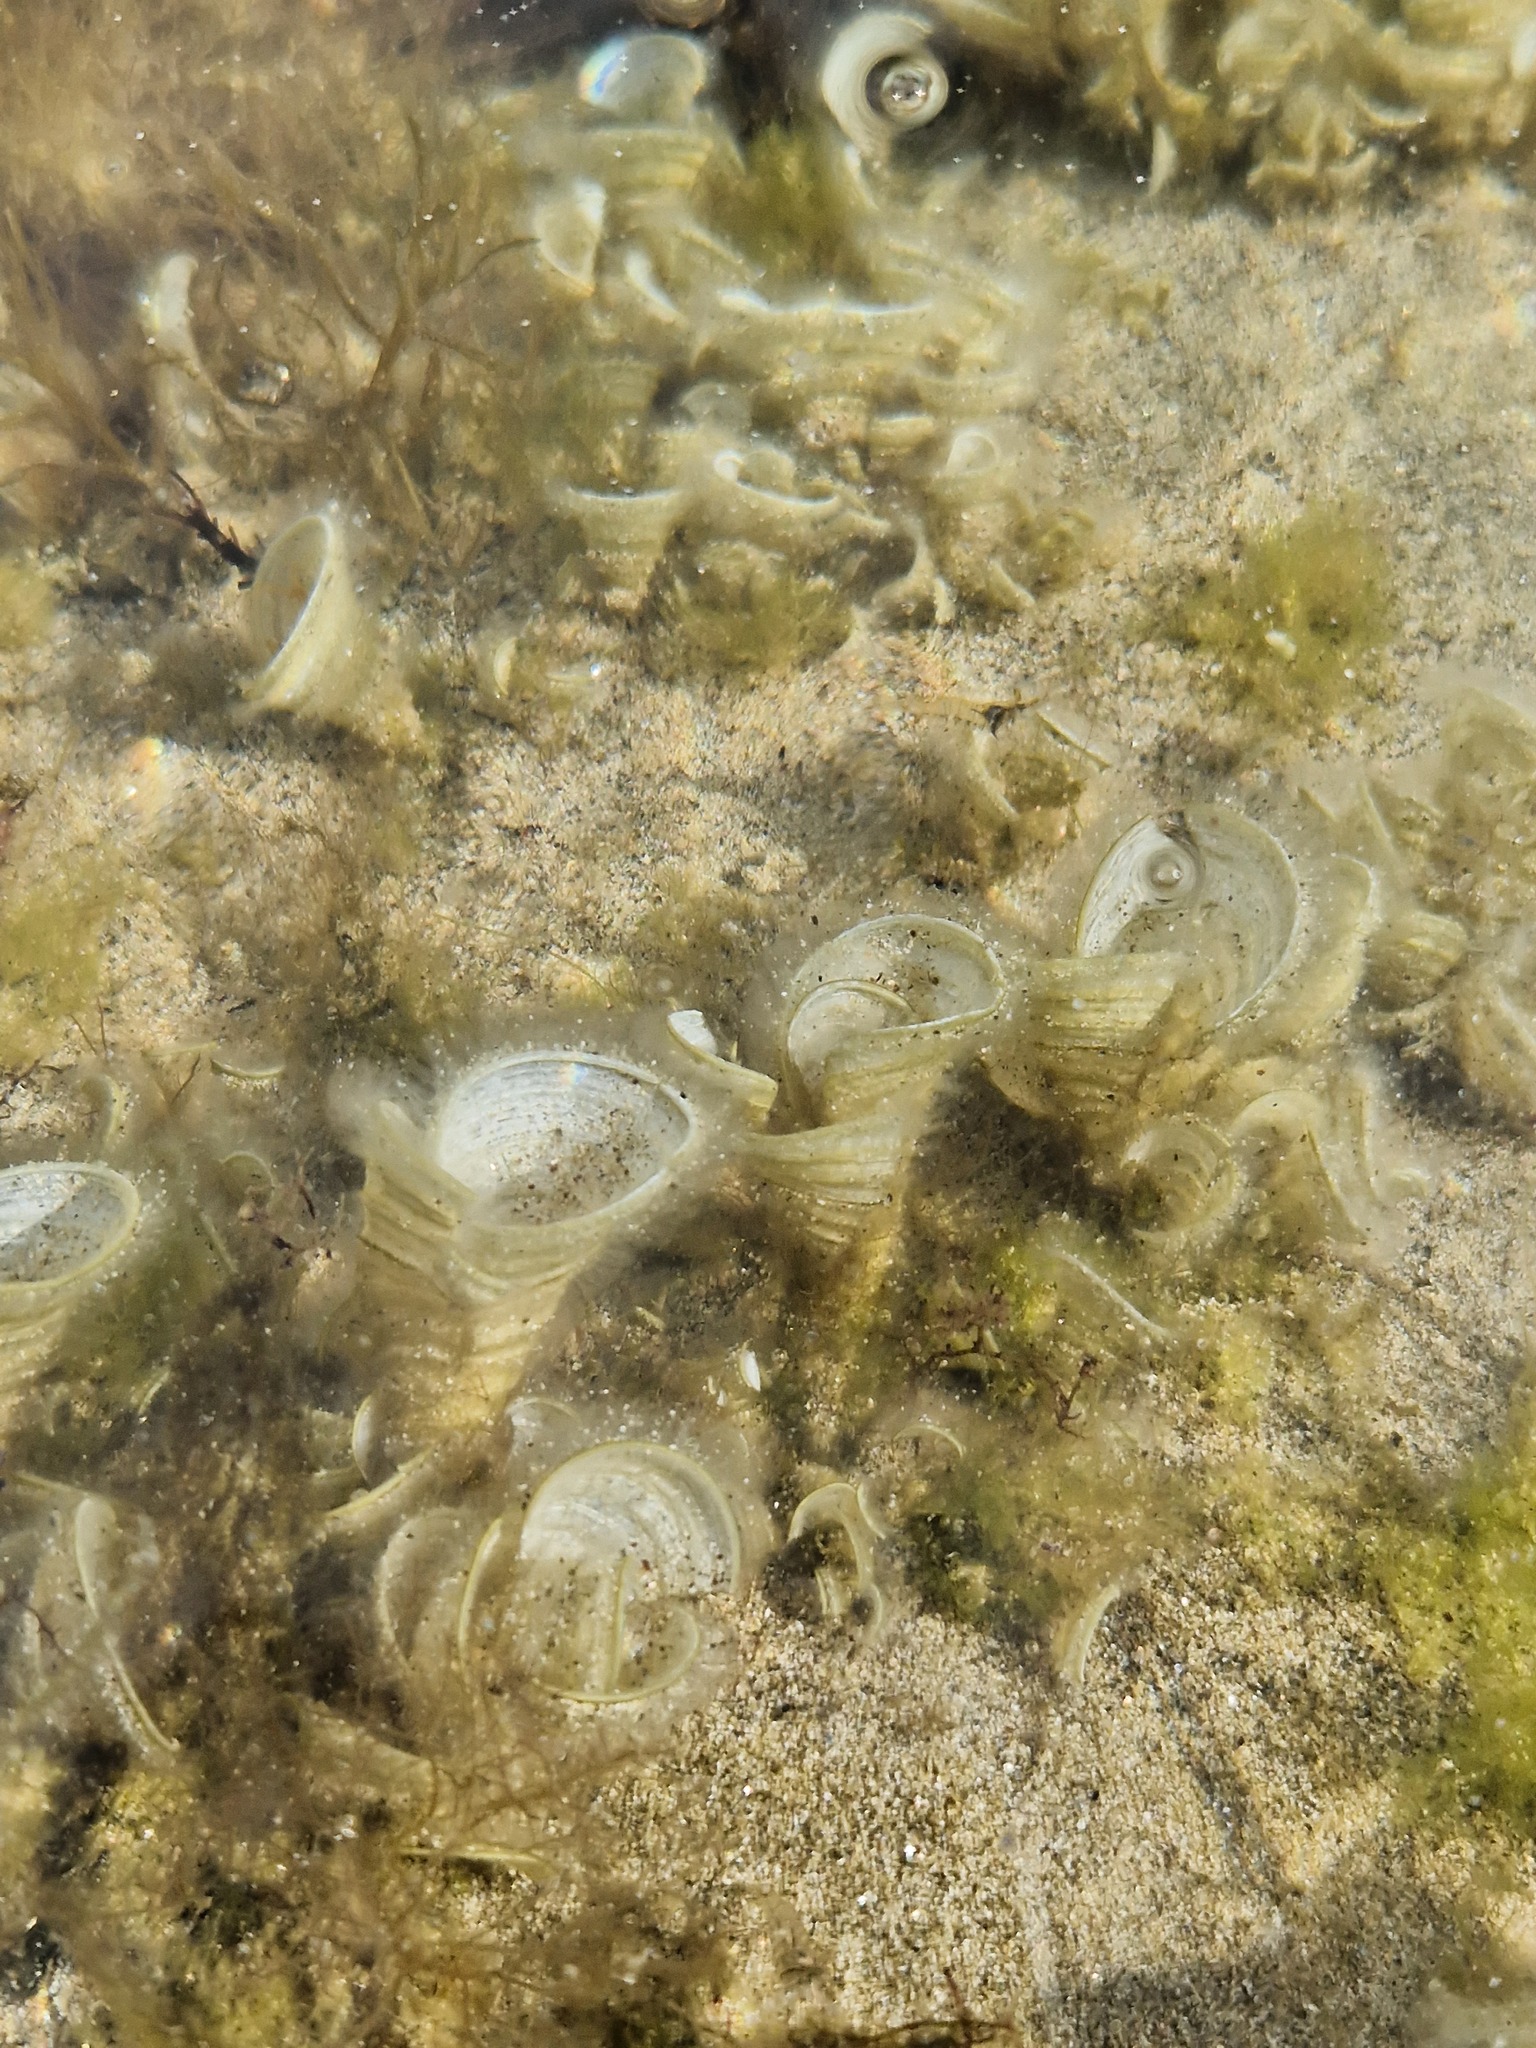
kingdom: Chromista
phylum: Ochrophyta
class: Phaeophyceae
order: Dictyotales
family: Dictyotaceae
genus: Padina
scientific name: Padina pavonica
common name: Turkey feather alga
